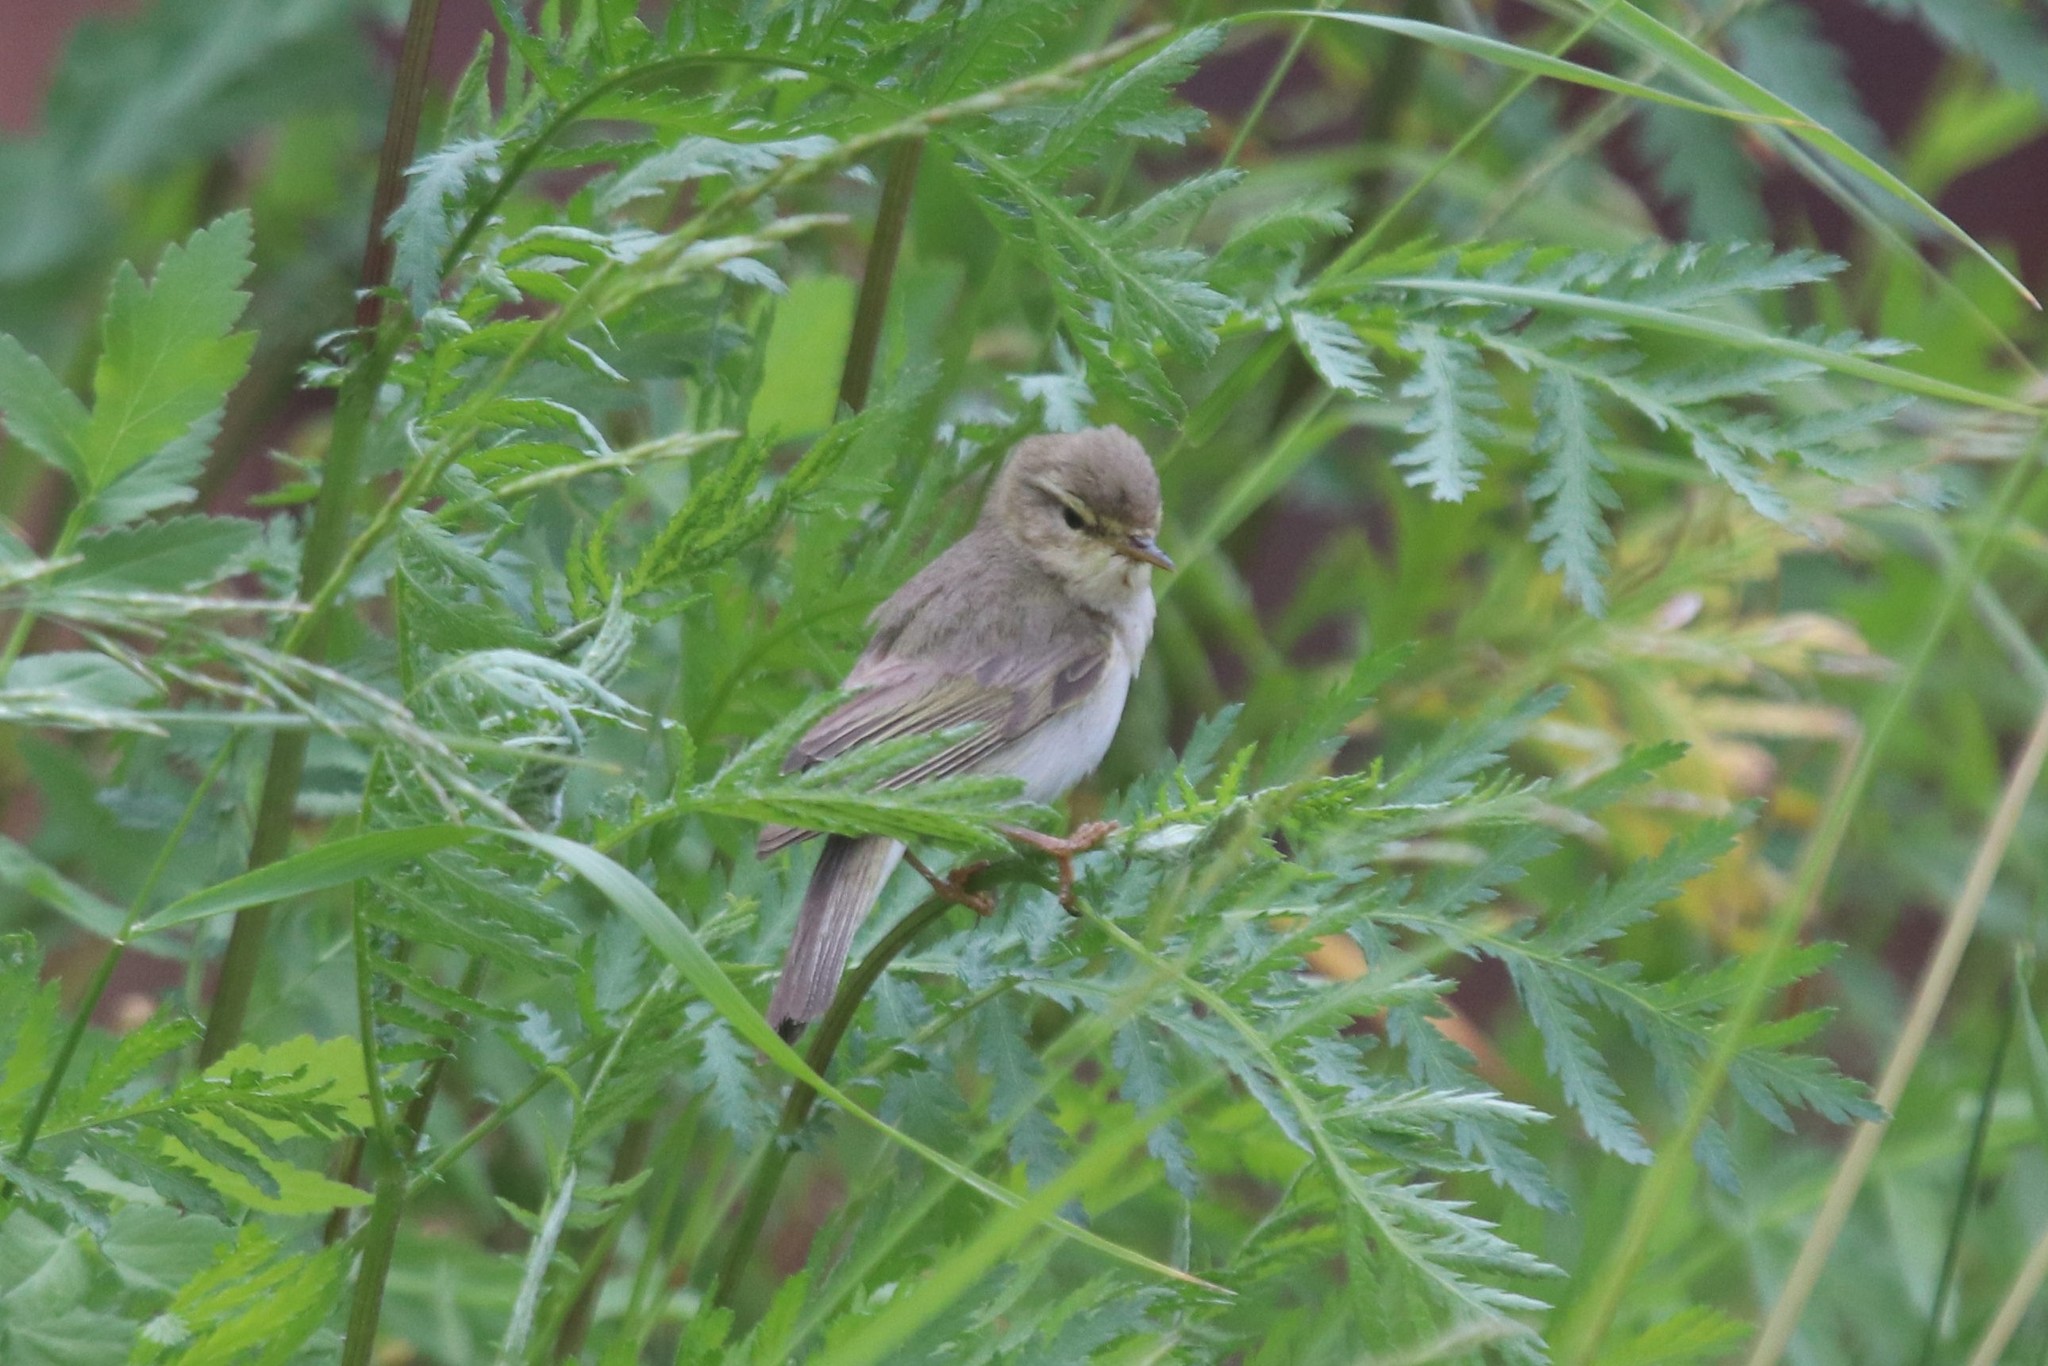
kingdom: Animalia
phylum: Chordata
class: Aves
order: Passeriformes
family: Phylloscopidae
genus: Phylloscopus
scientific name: Phylloscopus trochilus
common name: Willow warbler
